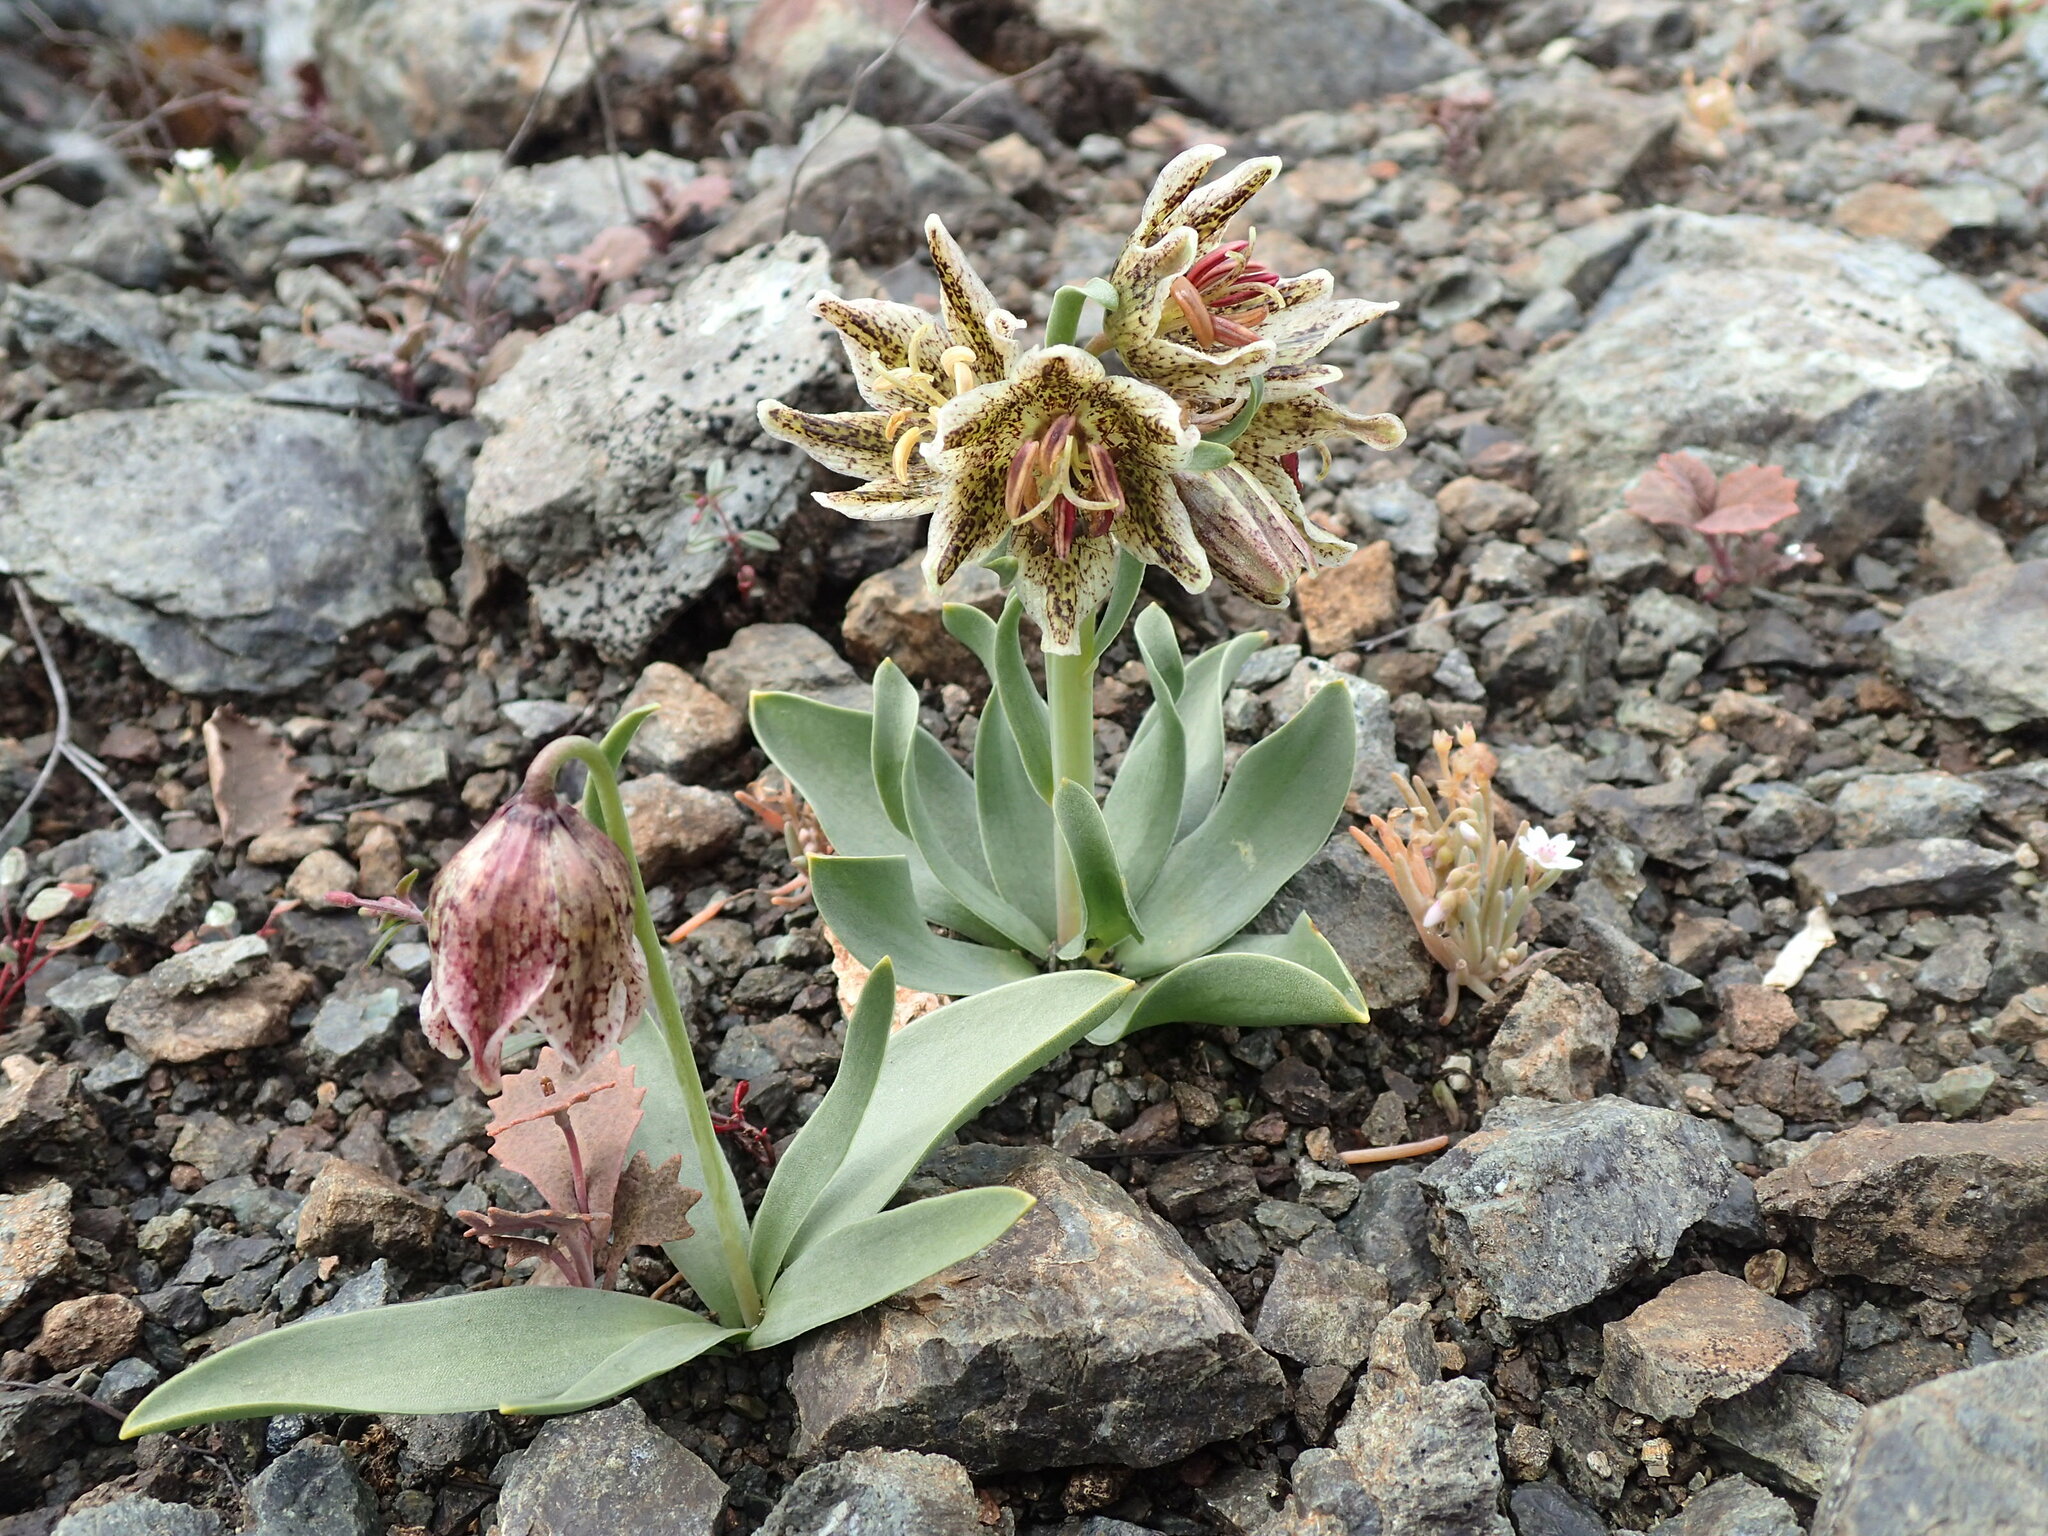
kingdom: Plantae
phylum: Tracheophyta
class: Liliopsida
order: Liliales
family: Liliaceae
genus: Fritillaria
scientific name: Fritillaria purdyi
